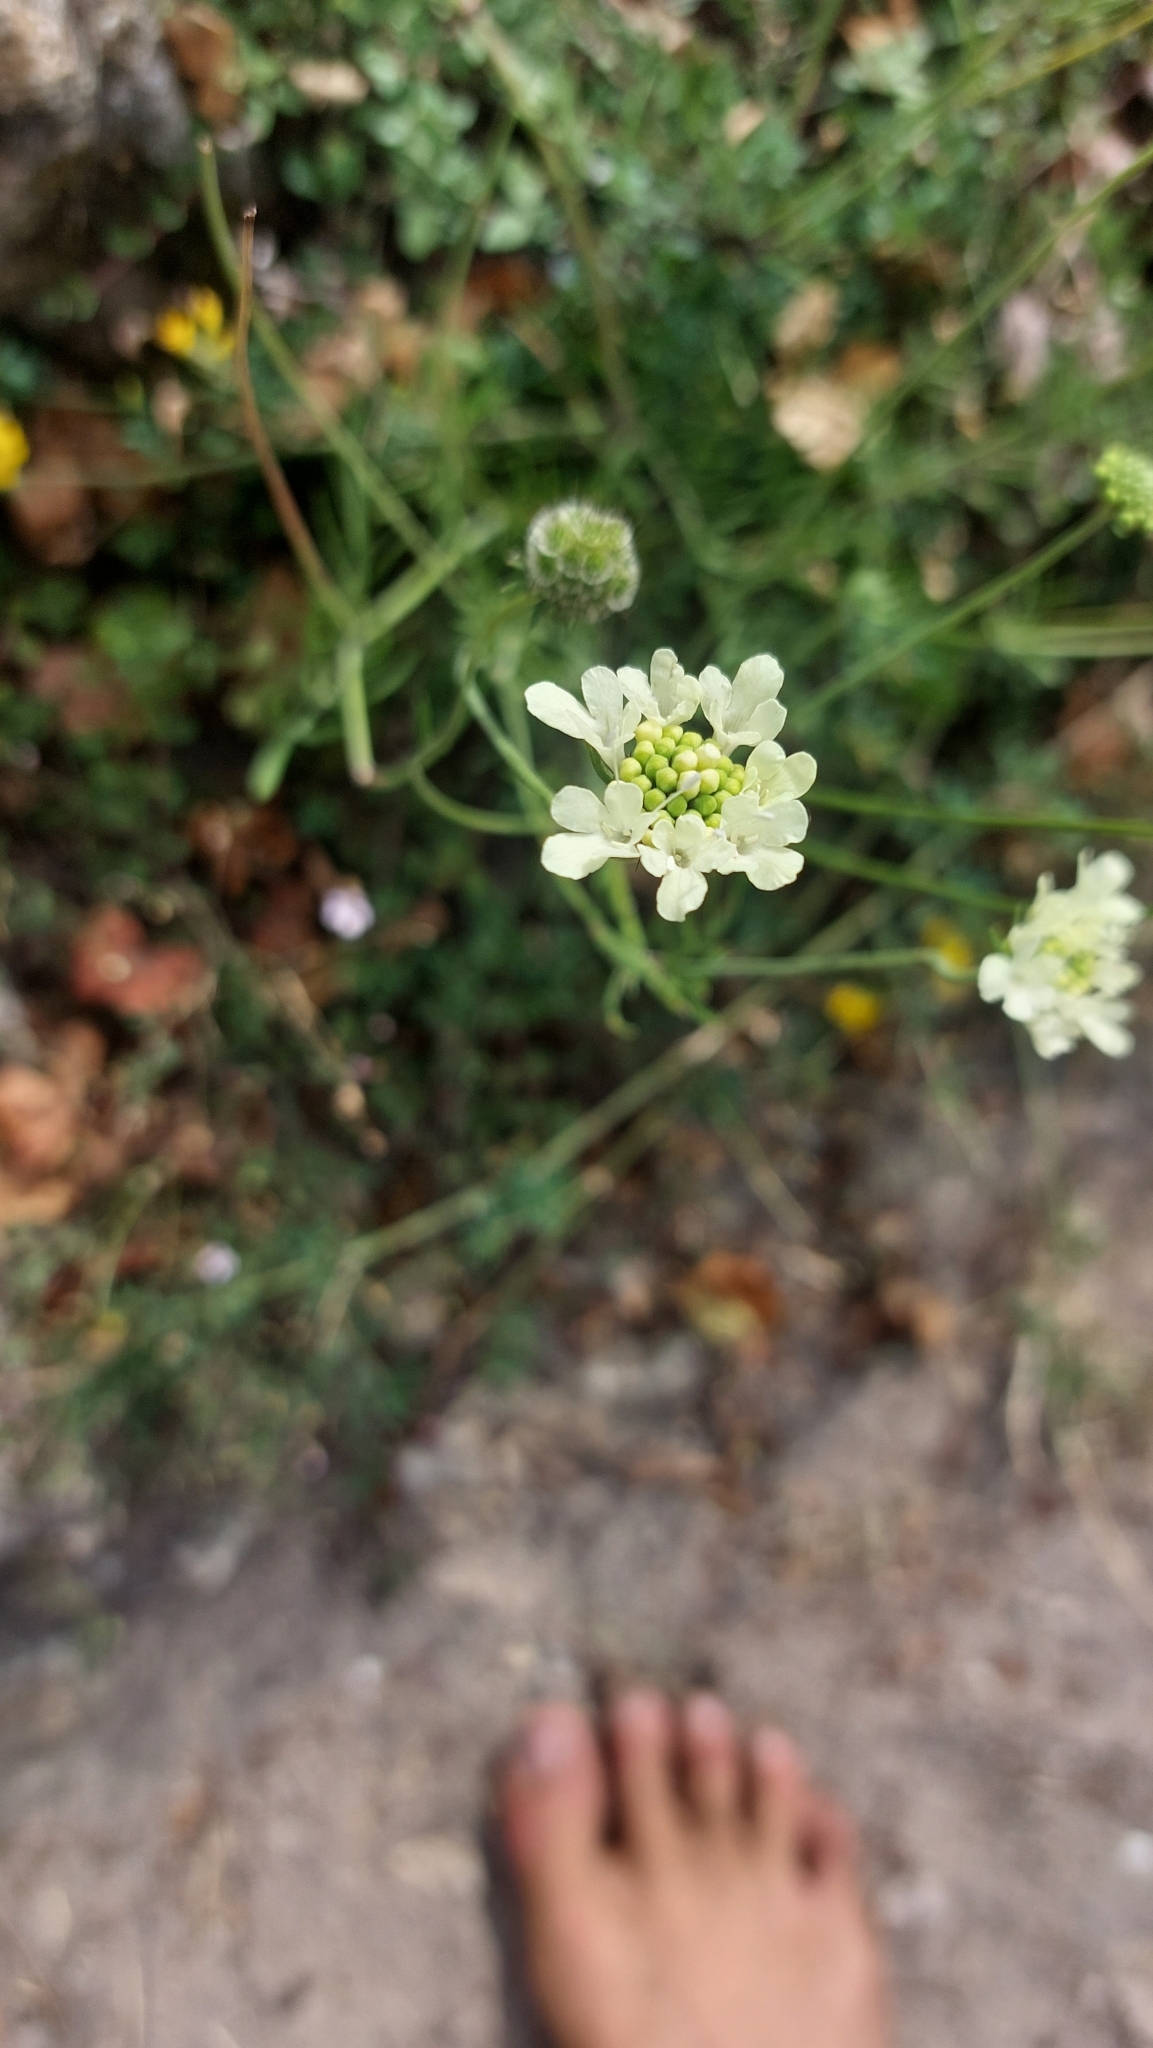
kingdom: Plantae
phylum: Tracheophyta
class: Magnoliopsida
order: Dipsacales
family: Caprifoliaceae
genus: Scabiosa
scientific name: Scabiosa ochroleuca
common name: Cream pincushions
